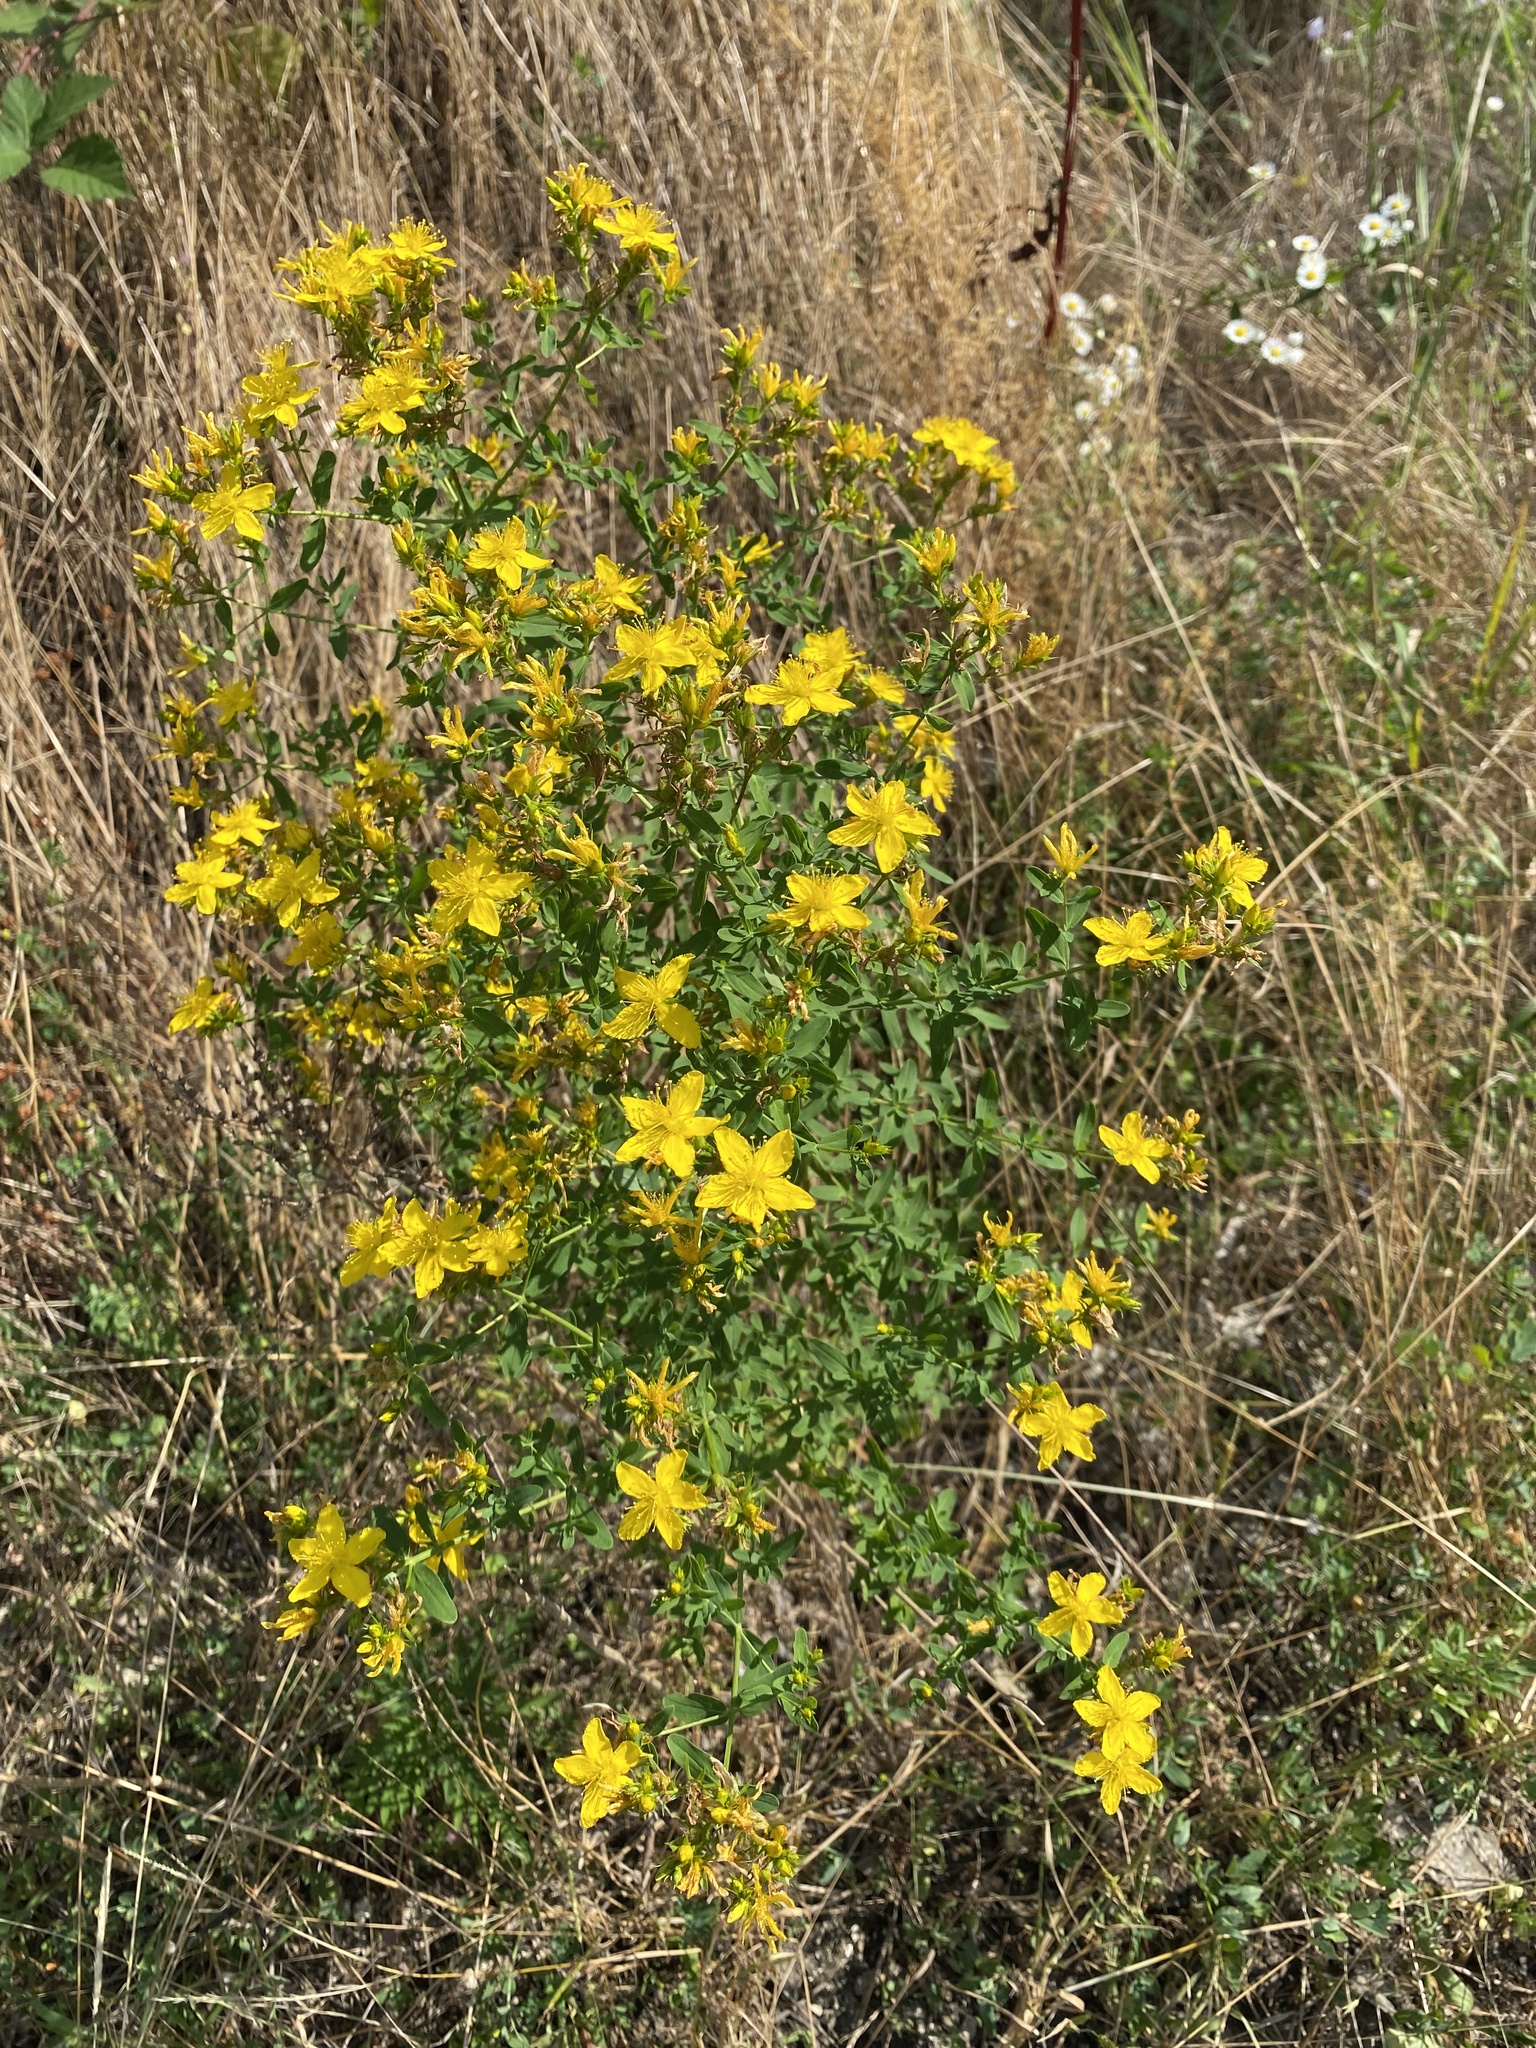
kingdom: Plantae
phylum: Tracheophyta
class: Magnoliopsida
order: Malpighiales
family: Hypericaceae
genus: Hypericum
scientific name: Hypericum perforatum
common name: Common st. johnswort
